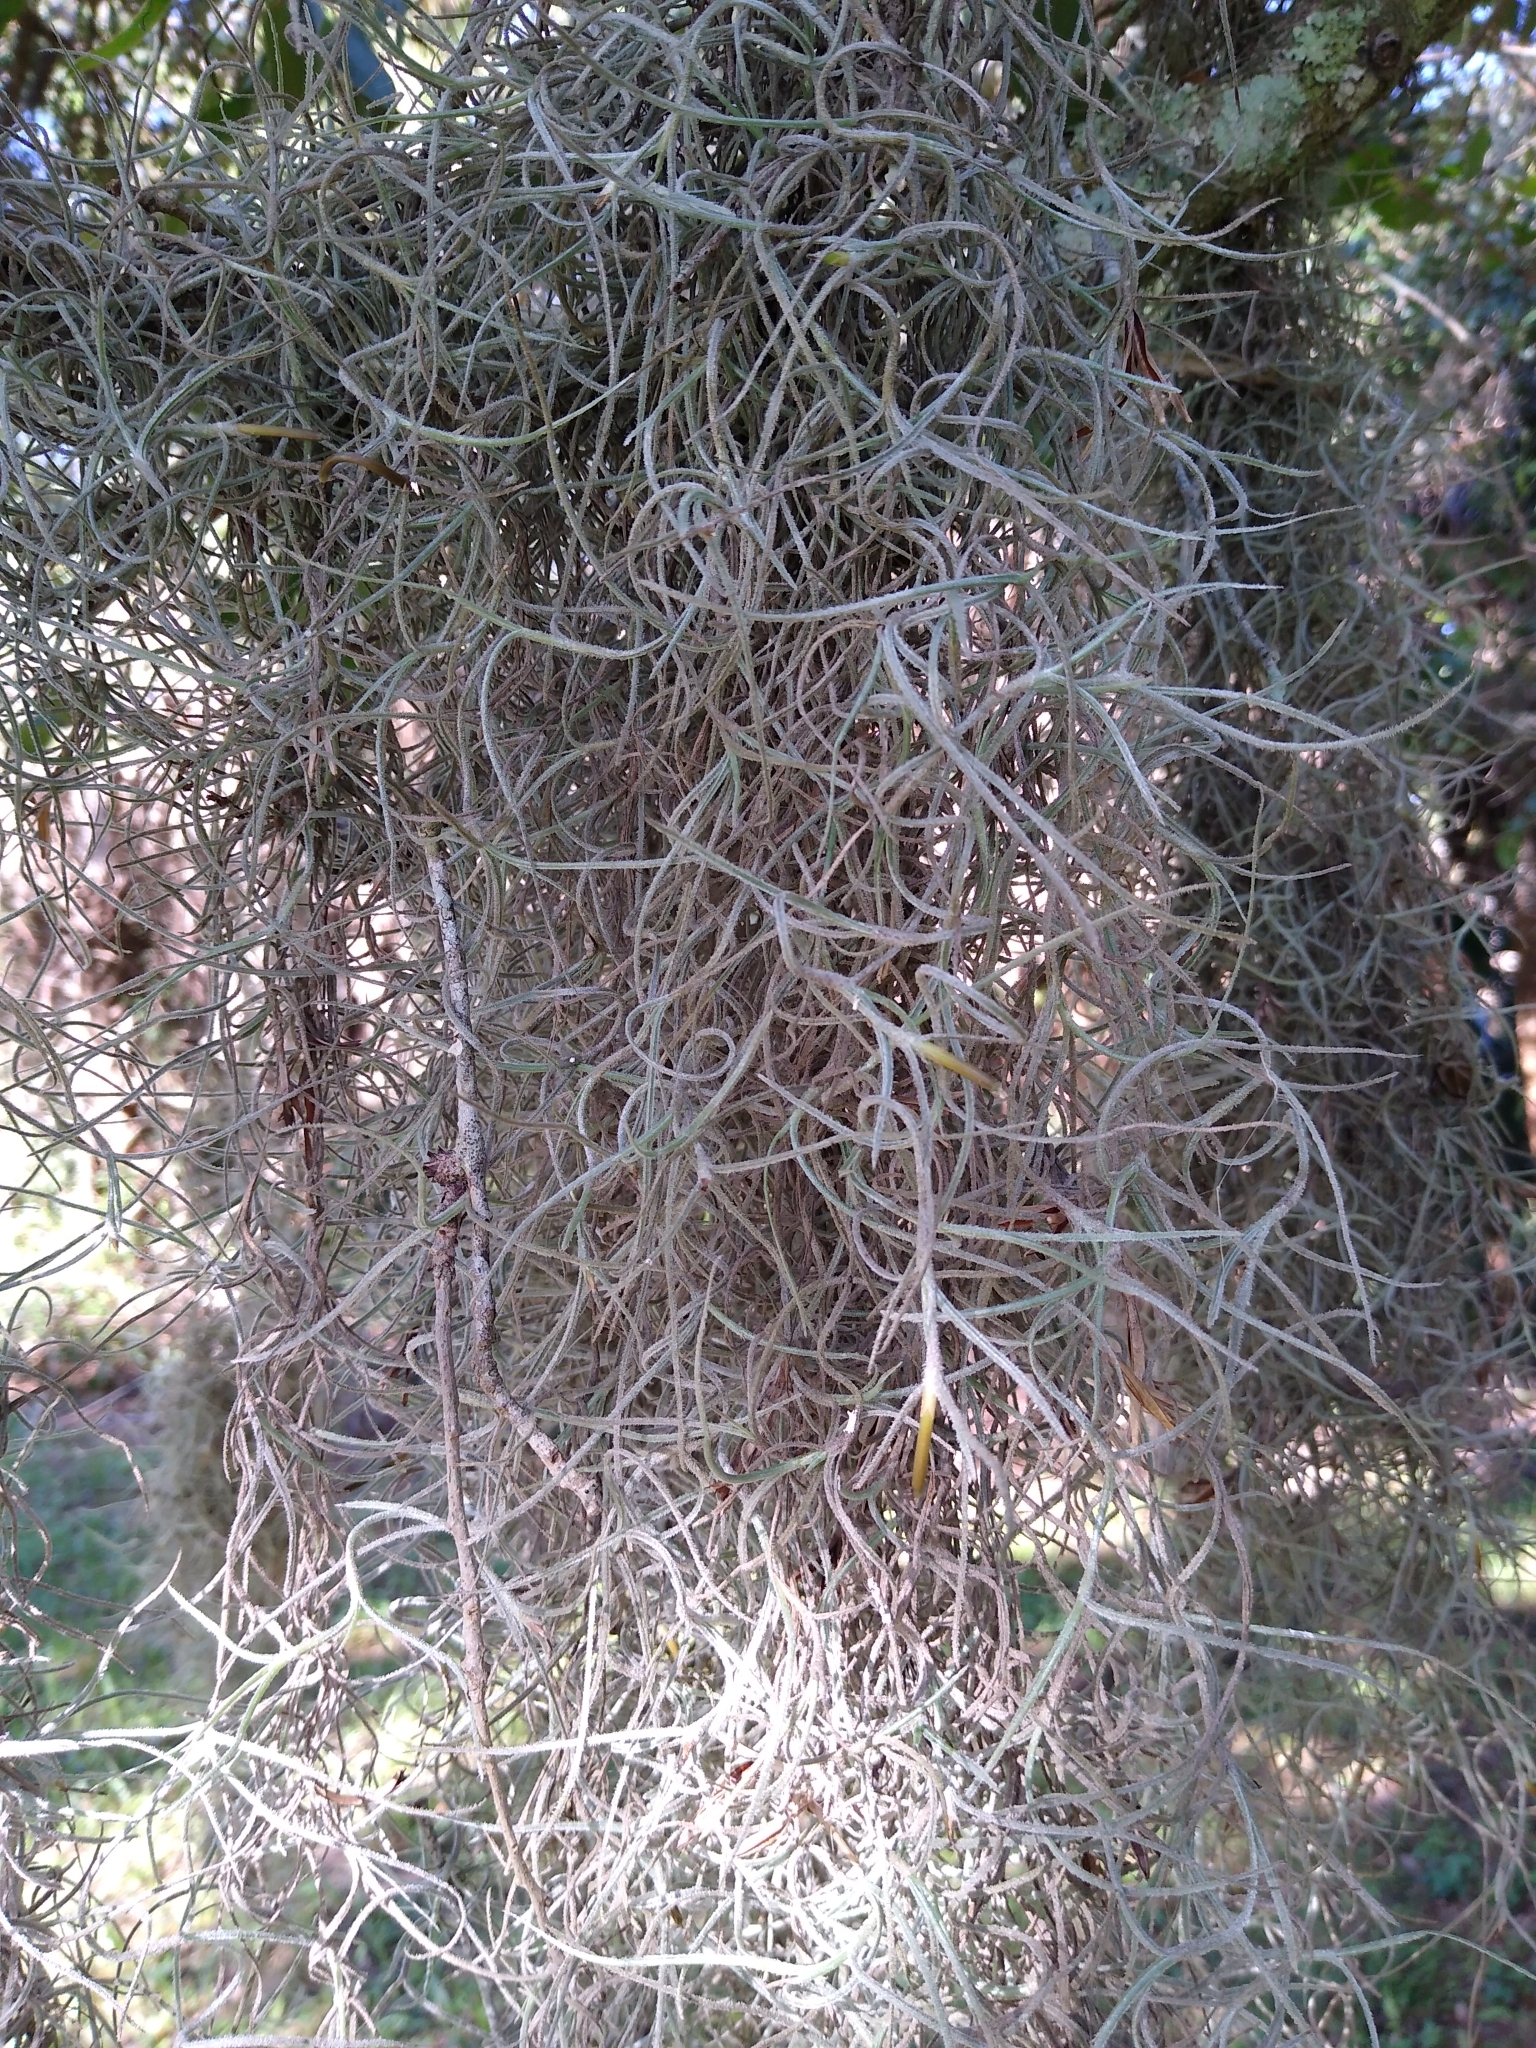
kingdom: Plantae
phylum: Tracheophyta
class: Liliopsida
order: Poales
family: Bromeliaceae
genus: Tillandsia
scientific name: Tillandsia usneoides
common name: Spanish moss
